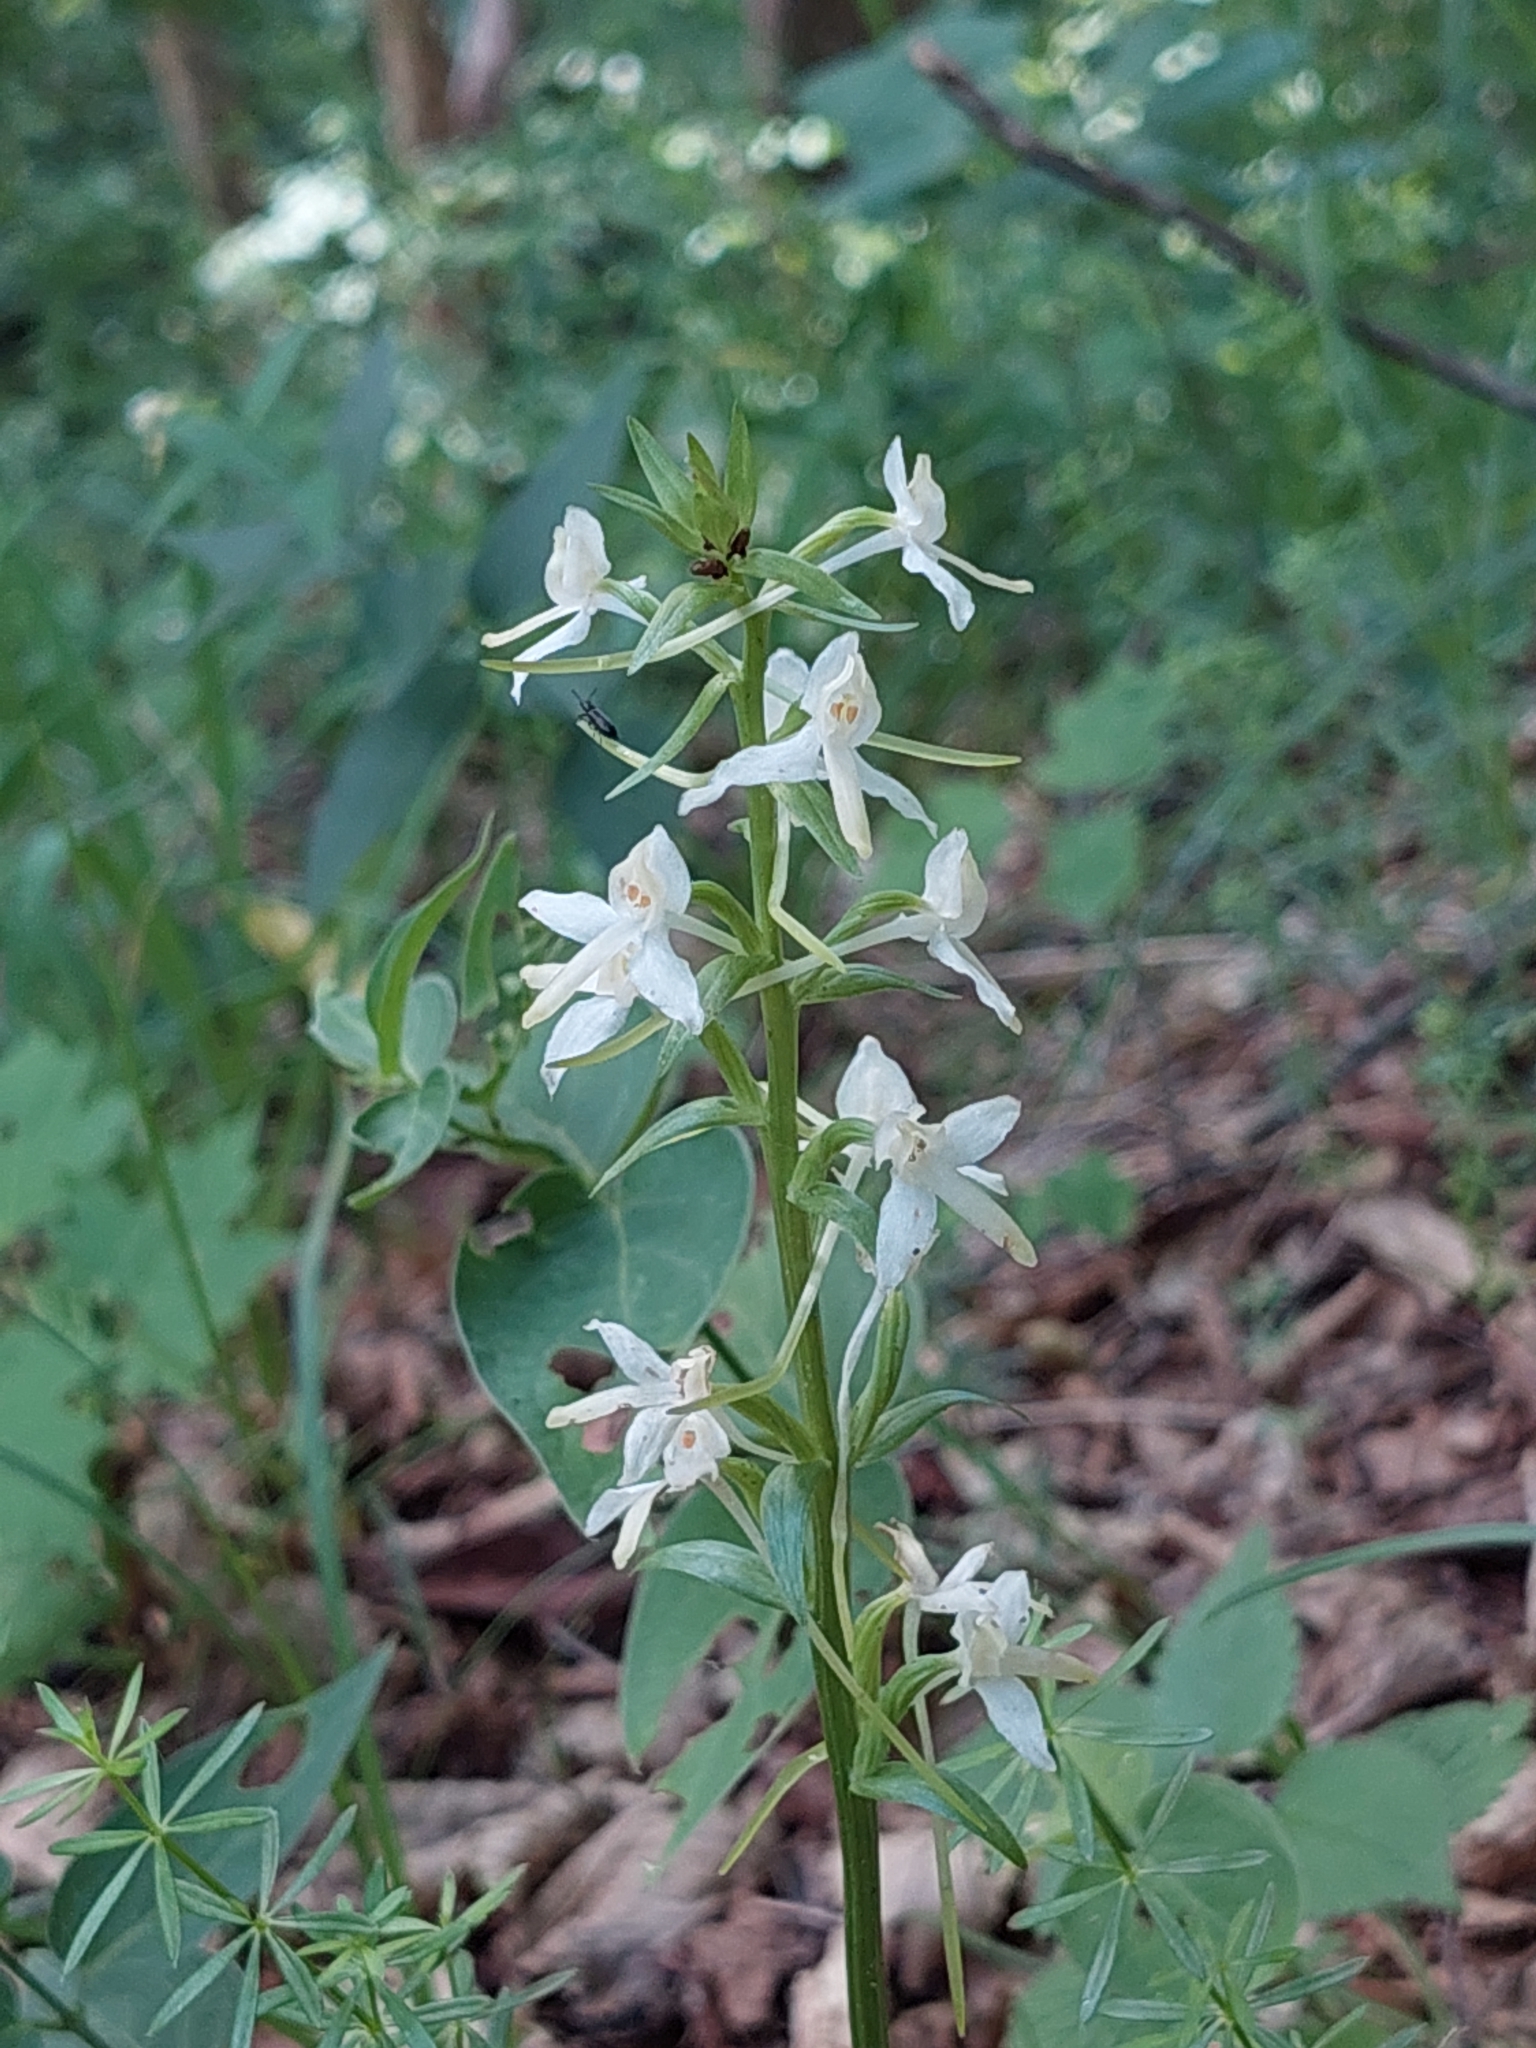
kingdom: Plantae
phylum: Tracheophyta
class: Liliopsida
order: Asparagales
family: Orchidaceae
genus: Platanthera
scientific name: Platanthera bifolia
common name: Lesser butterfly-orchid
